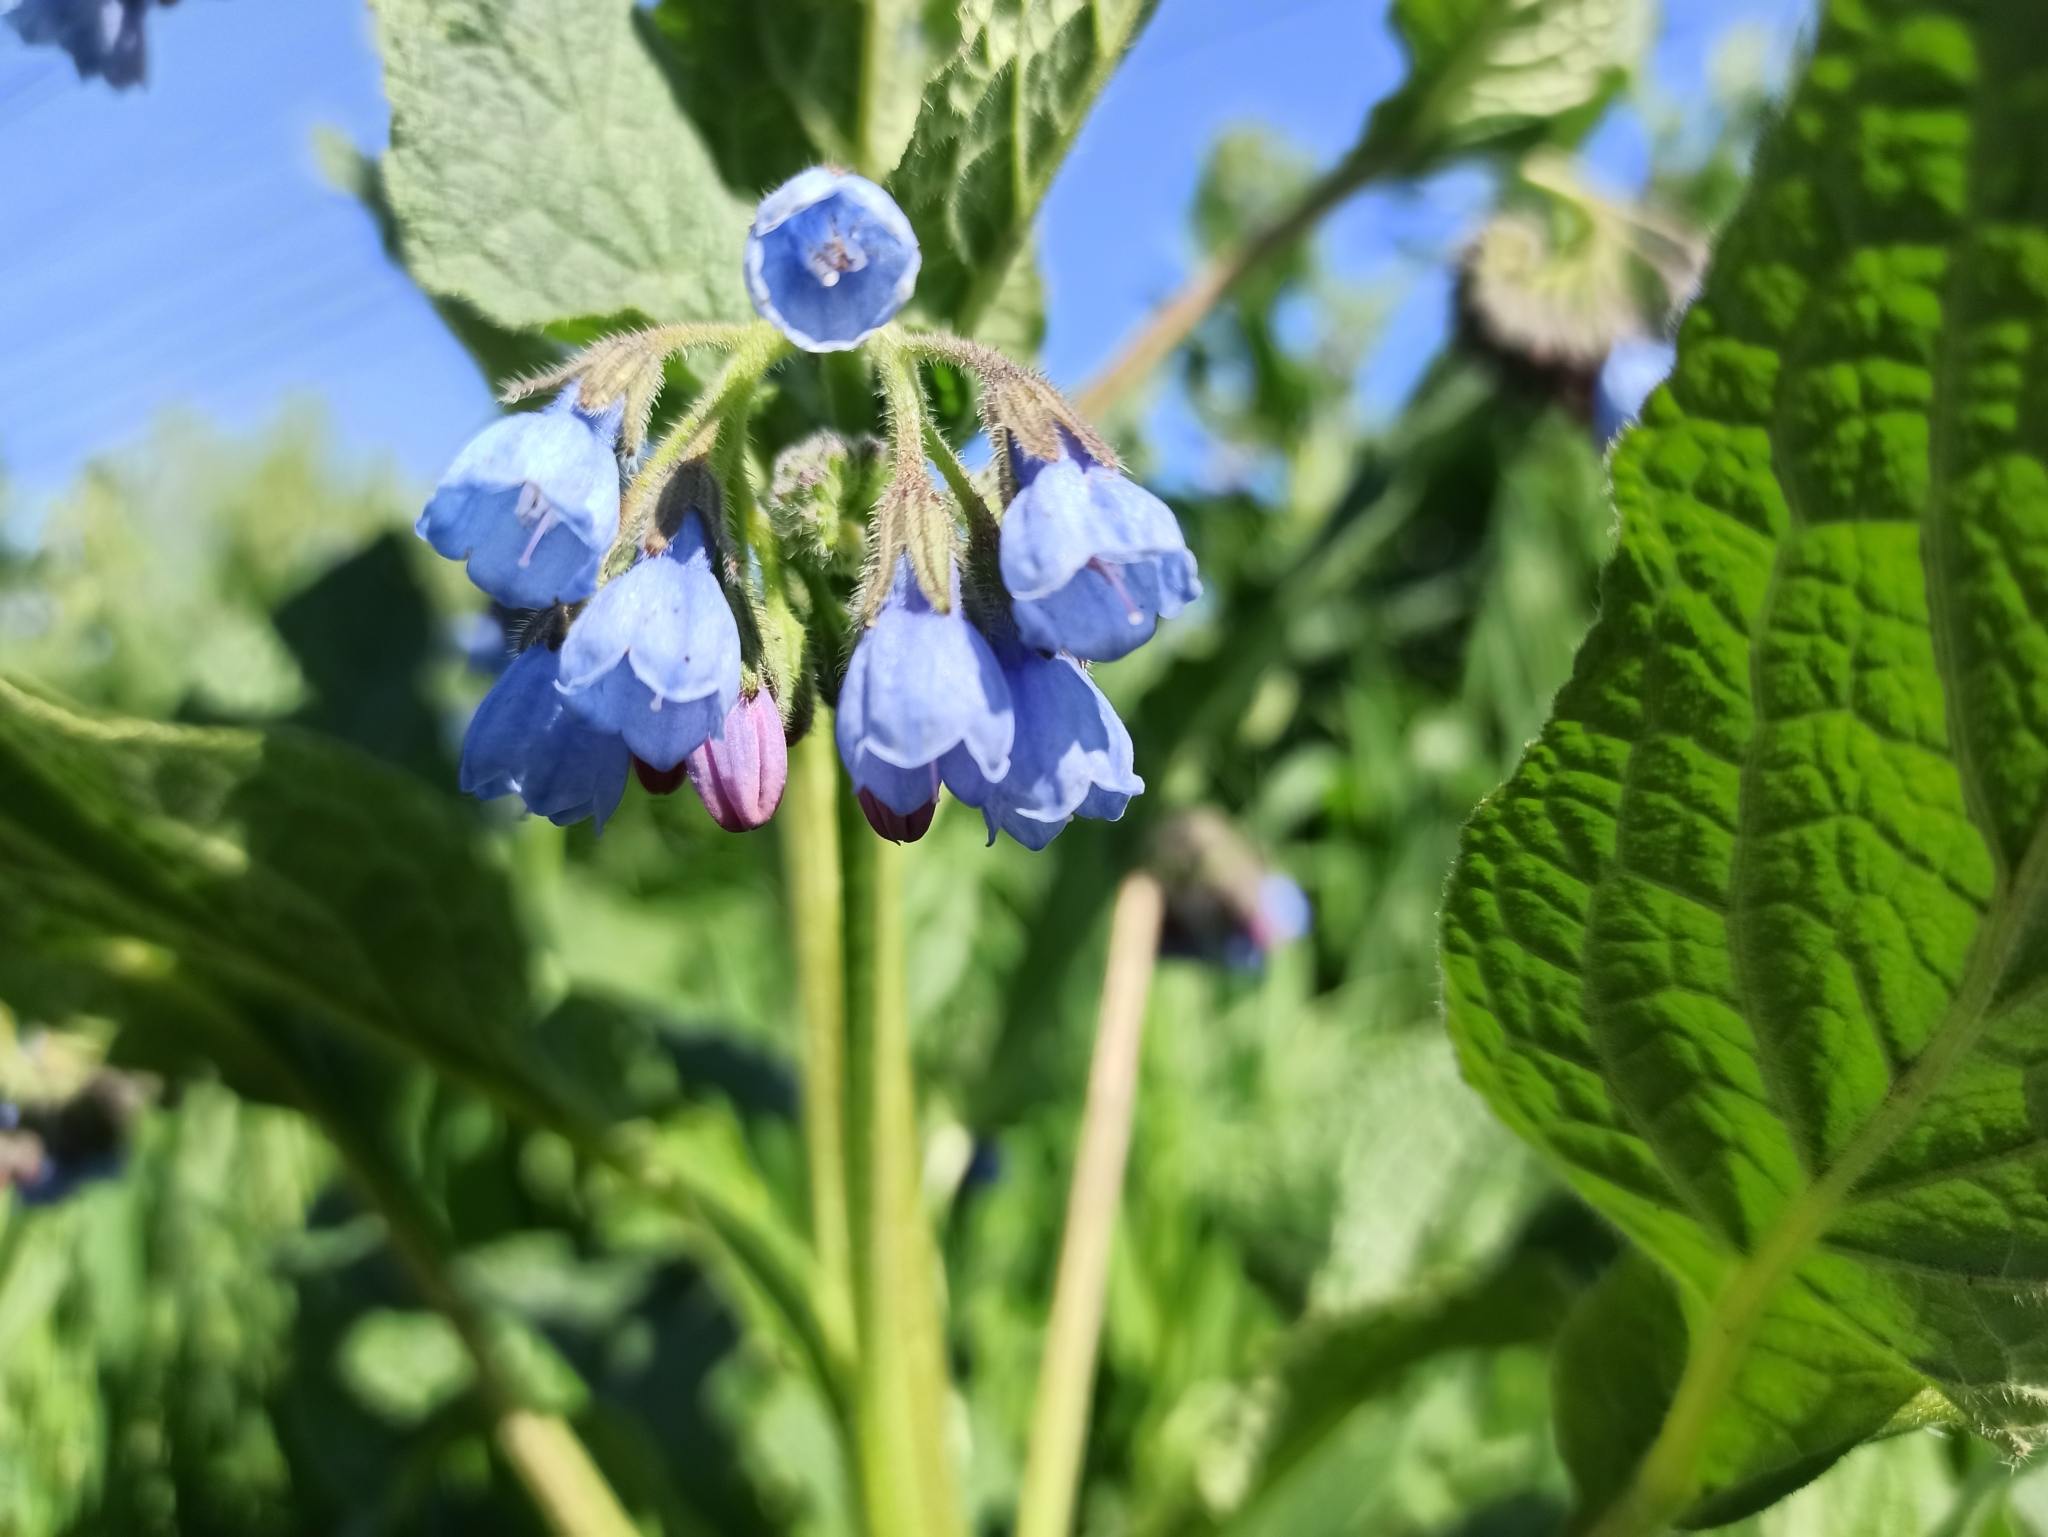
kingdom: Plantae
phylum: Tracheophyta
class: Magnoliopsida
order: Boraginales
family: Boraginaceae
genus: Symphytum
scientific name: Symphytum caucasicum
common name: Caucasian comfrey
